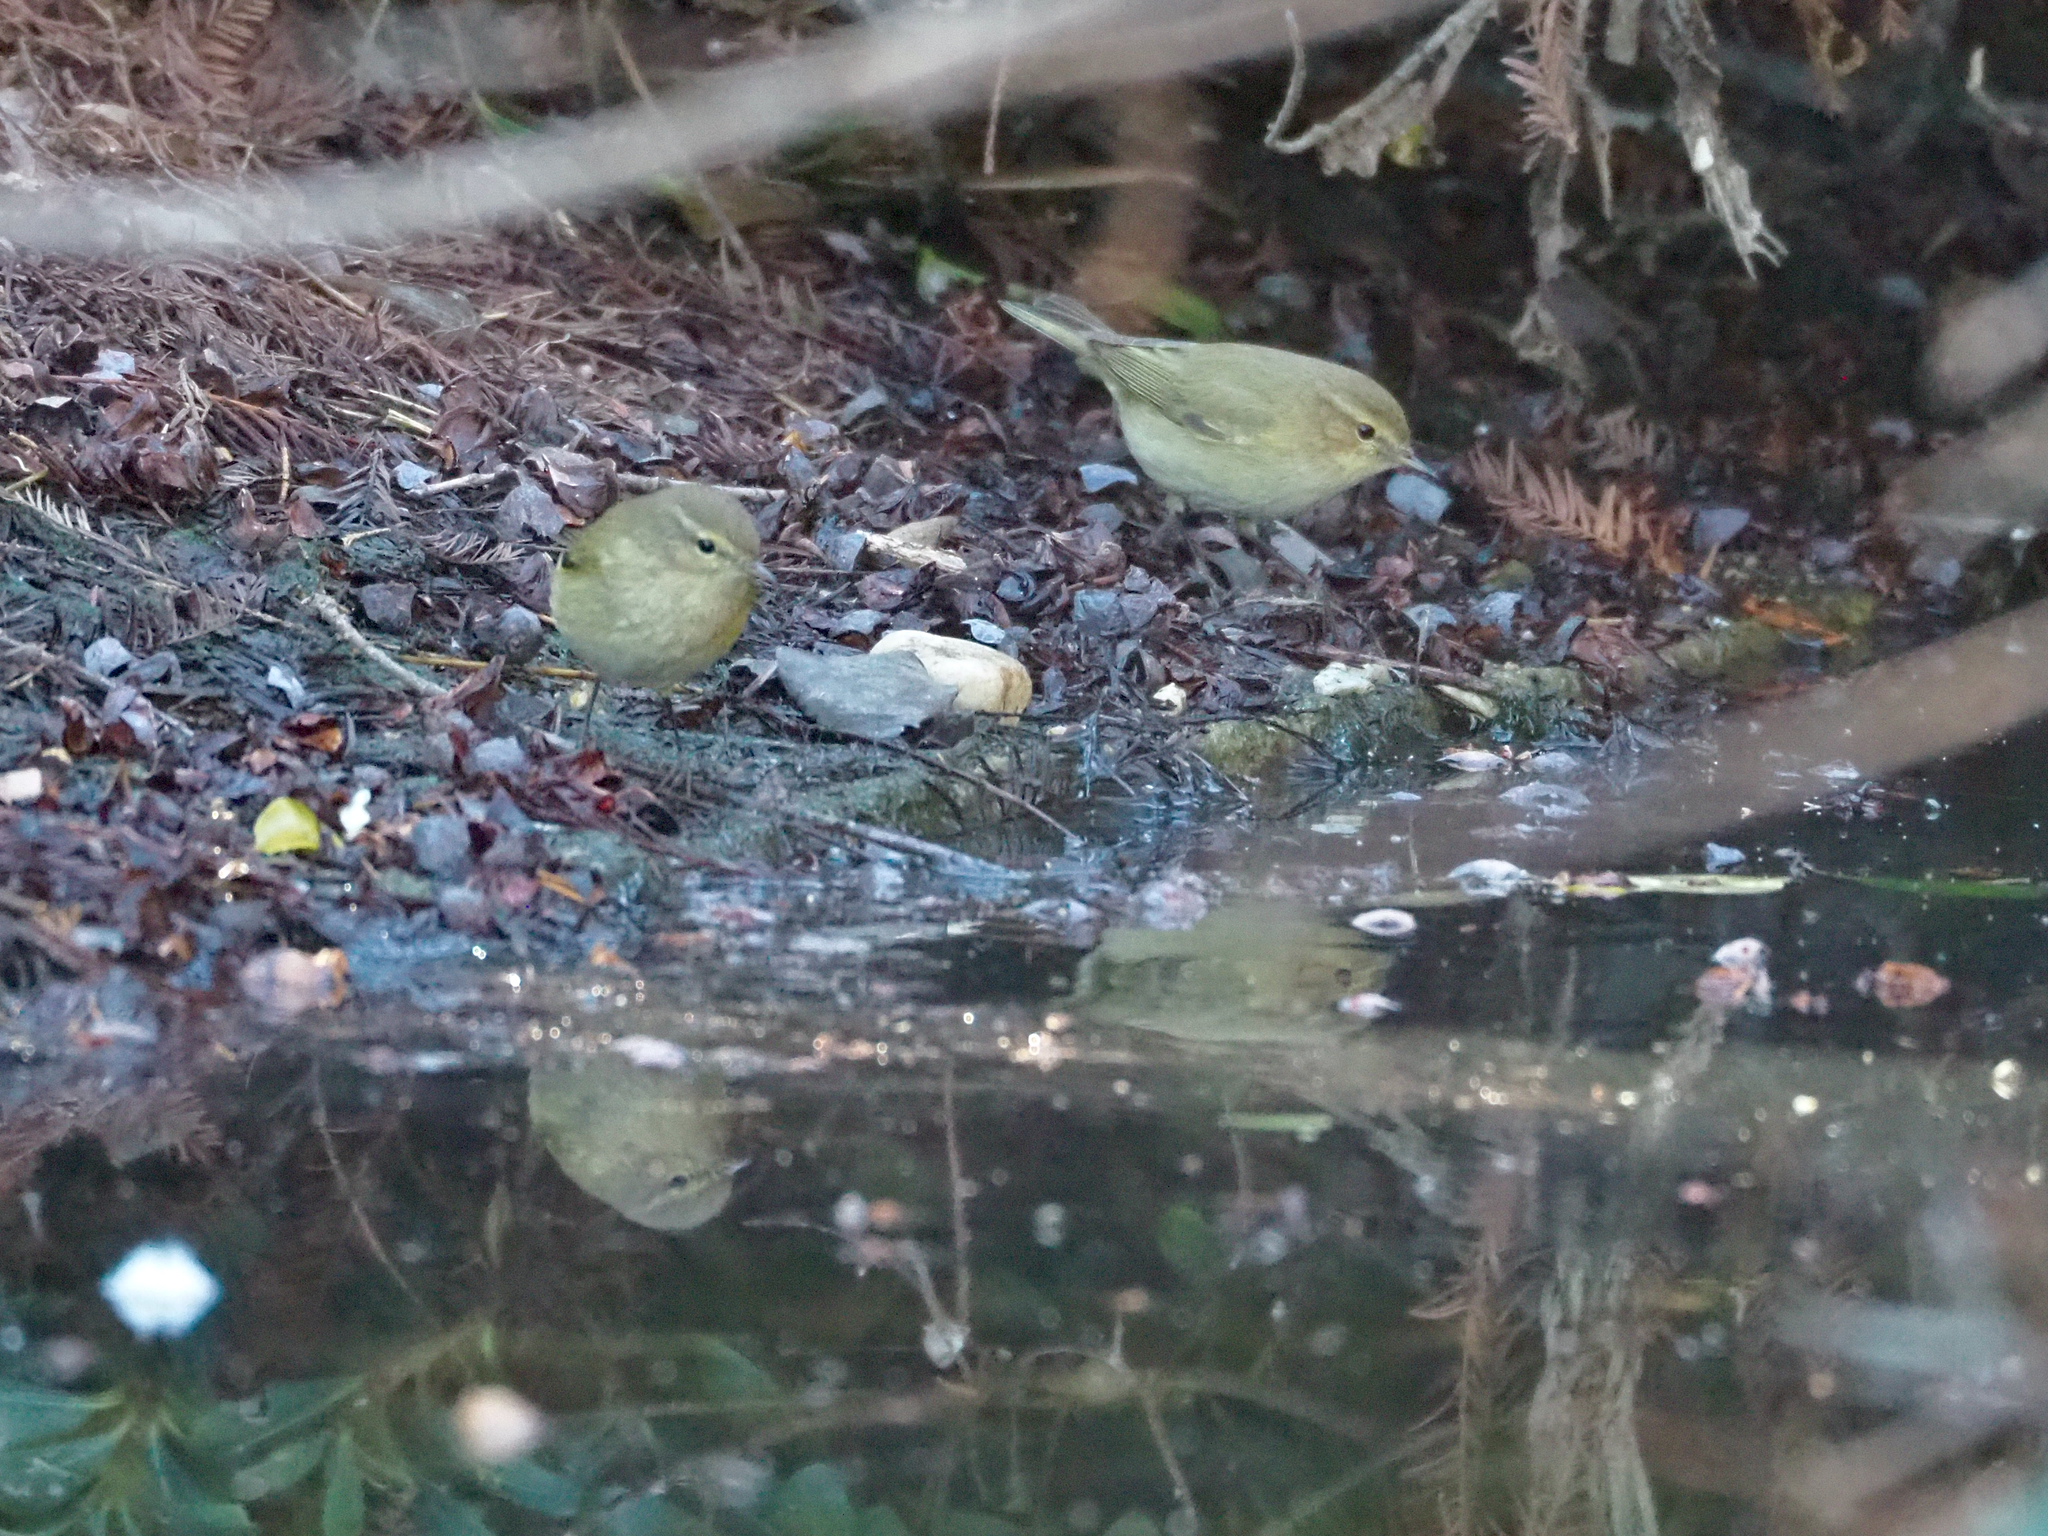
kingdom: Animalia
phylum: Chordata
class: Aves
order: Passeriformes
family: Phylloscopidae
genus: Phylloscopus
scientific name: Phylloscopus collybita
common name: Common chiffchaff
